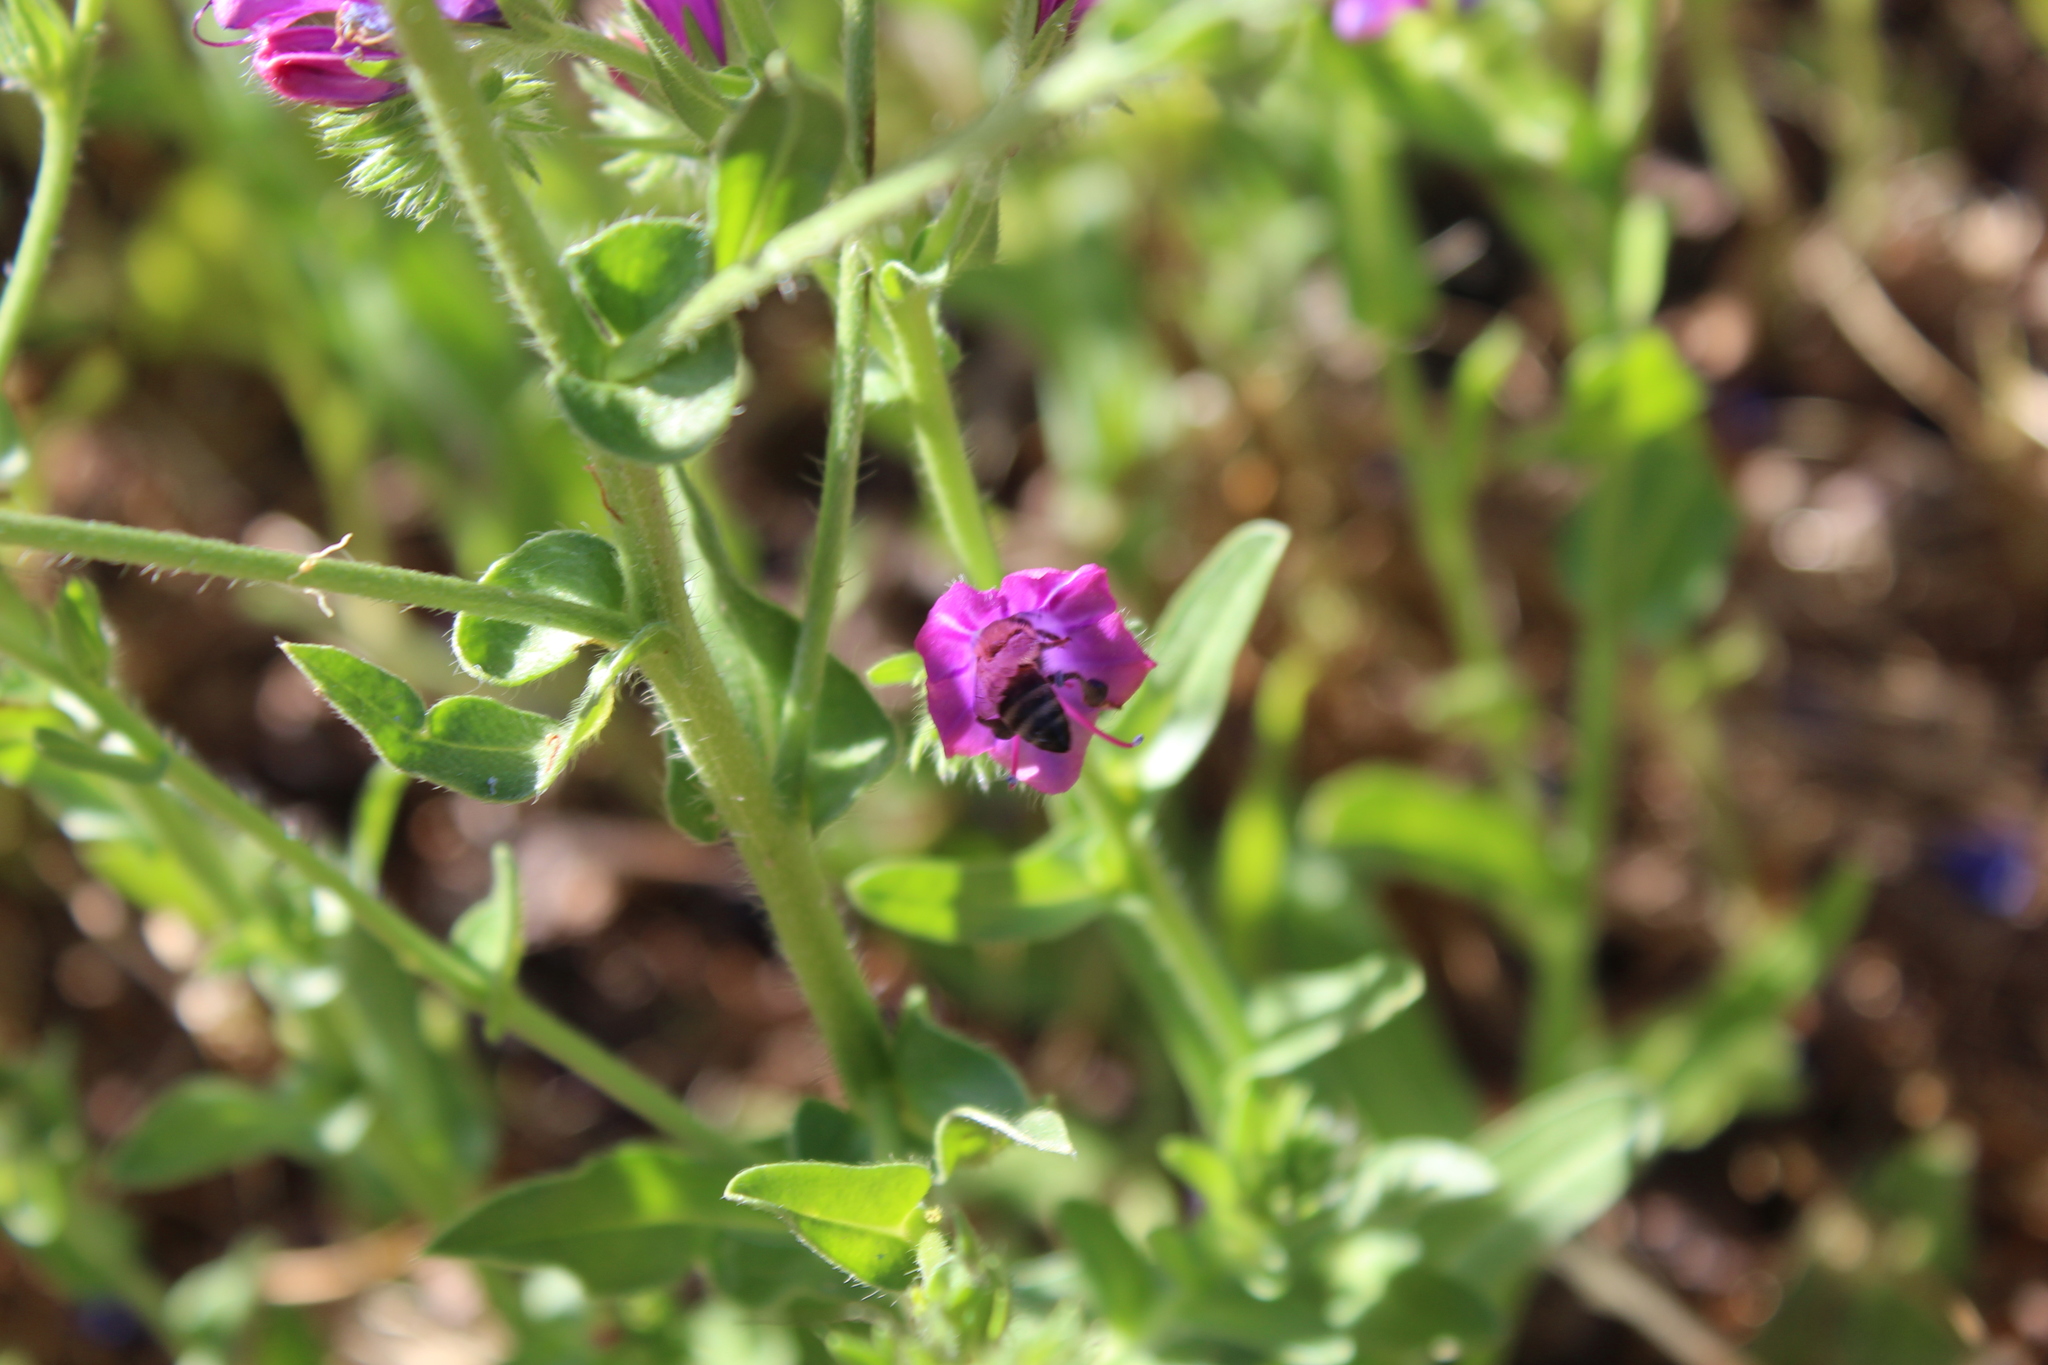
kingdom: Animalia
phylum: Arthropoda
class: Insecta
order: Hymenoptera
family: Apidae
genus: Apis
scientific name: Apis mellifera
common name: Honey bee
